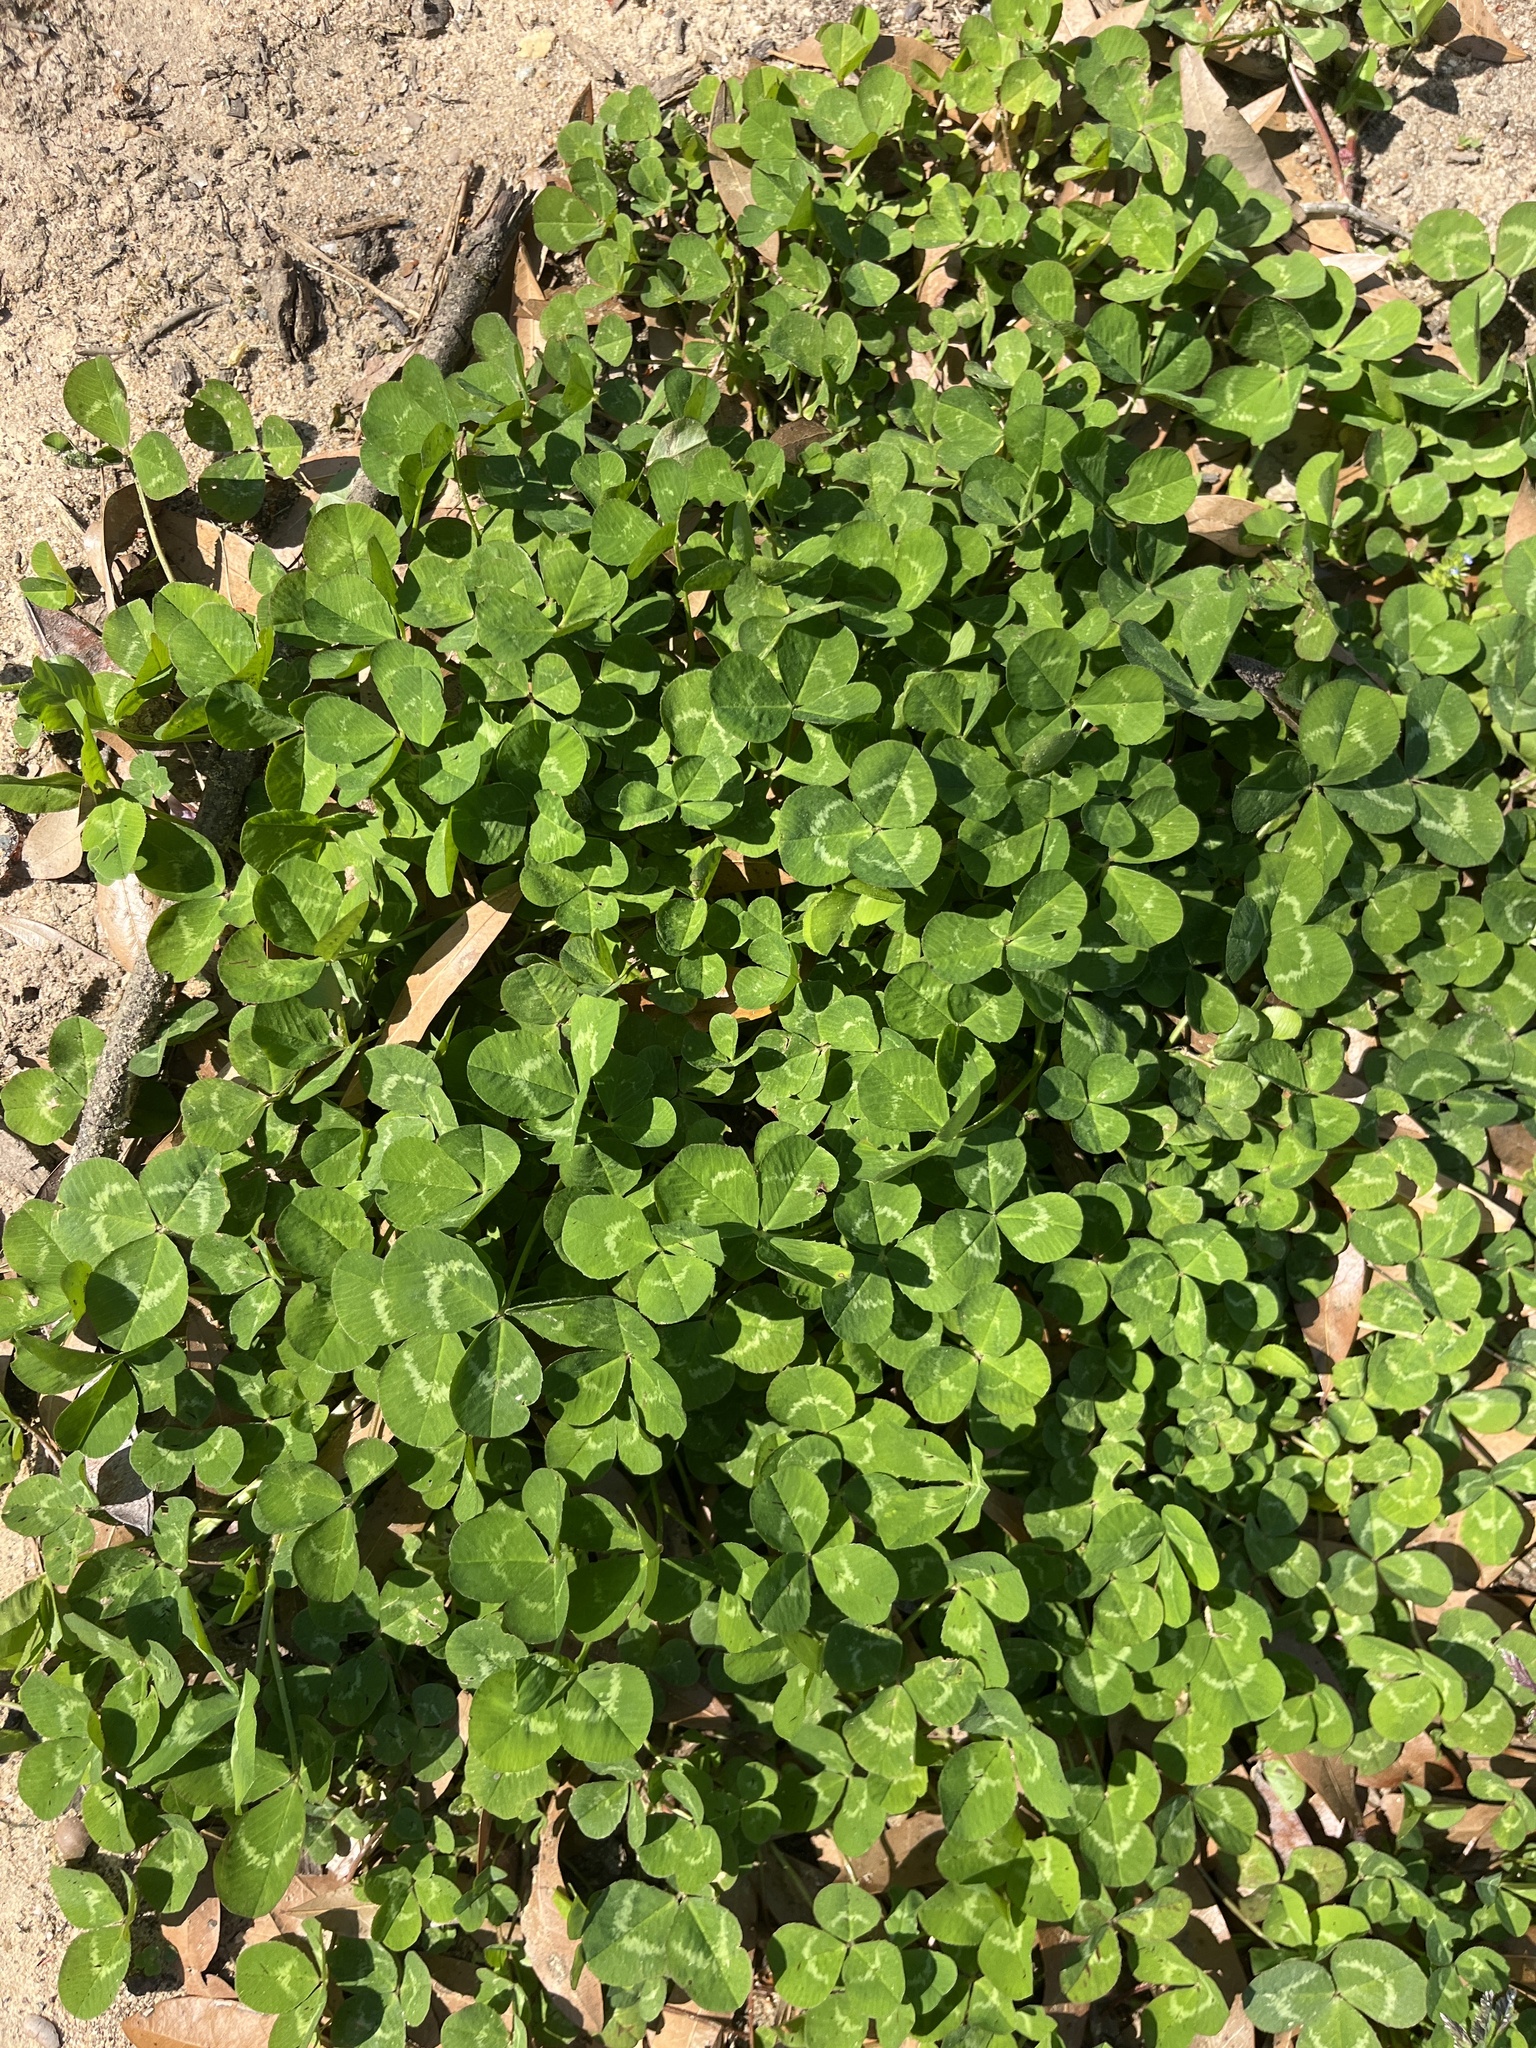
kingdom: Plantae
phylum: Tracheophyta
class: Magnoliopsida
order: Fabales
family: Fabaceae
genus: Trifolium
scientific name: Trifolium repens
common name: White clover
